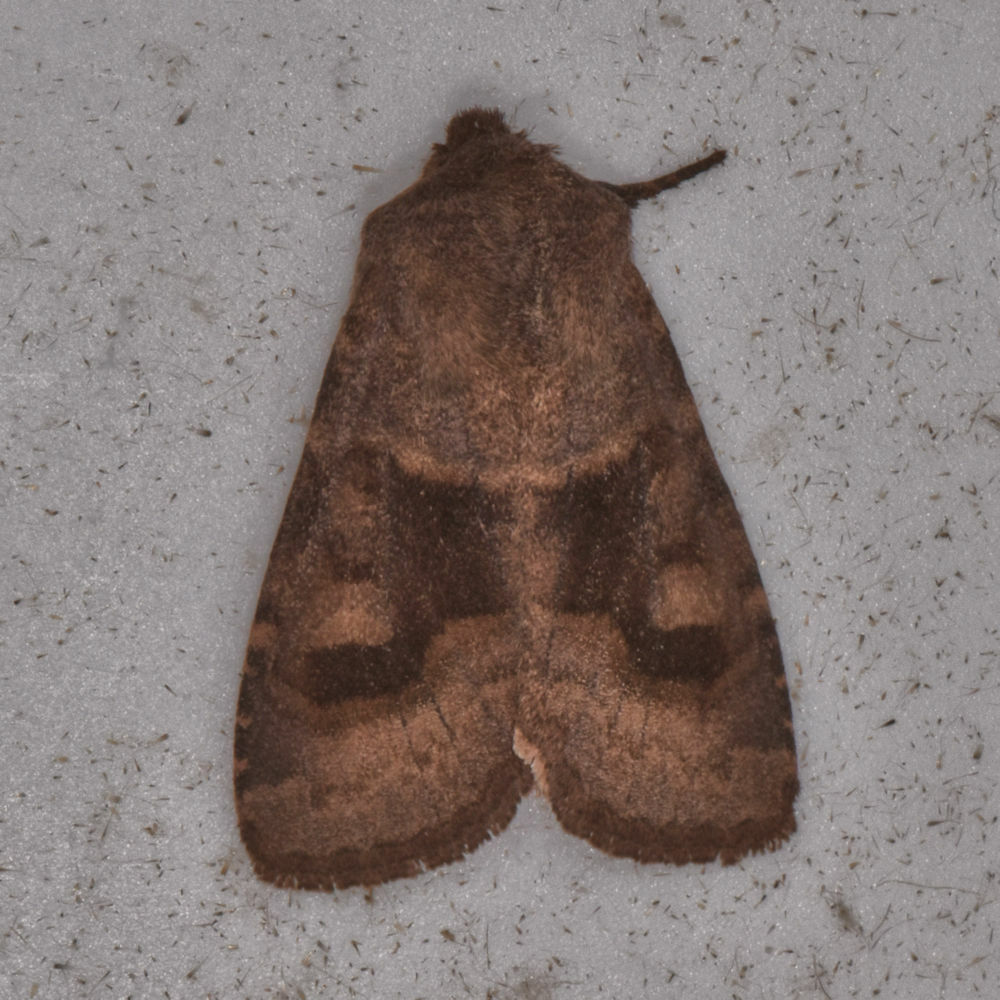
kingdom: Animalia
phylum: Arthropoda
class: Insecta
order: Lepidoptera
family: Noctuidae
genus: Nephelodes
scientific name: Nephelodes minians
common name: Bronzed cutworm
